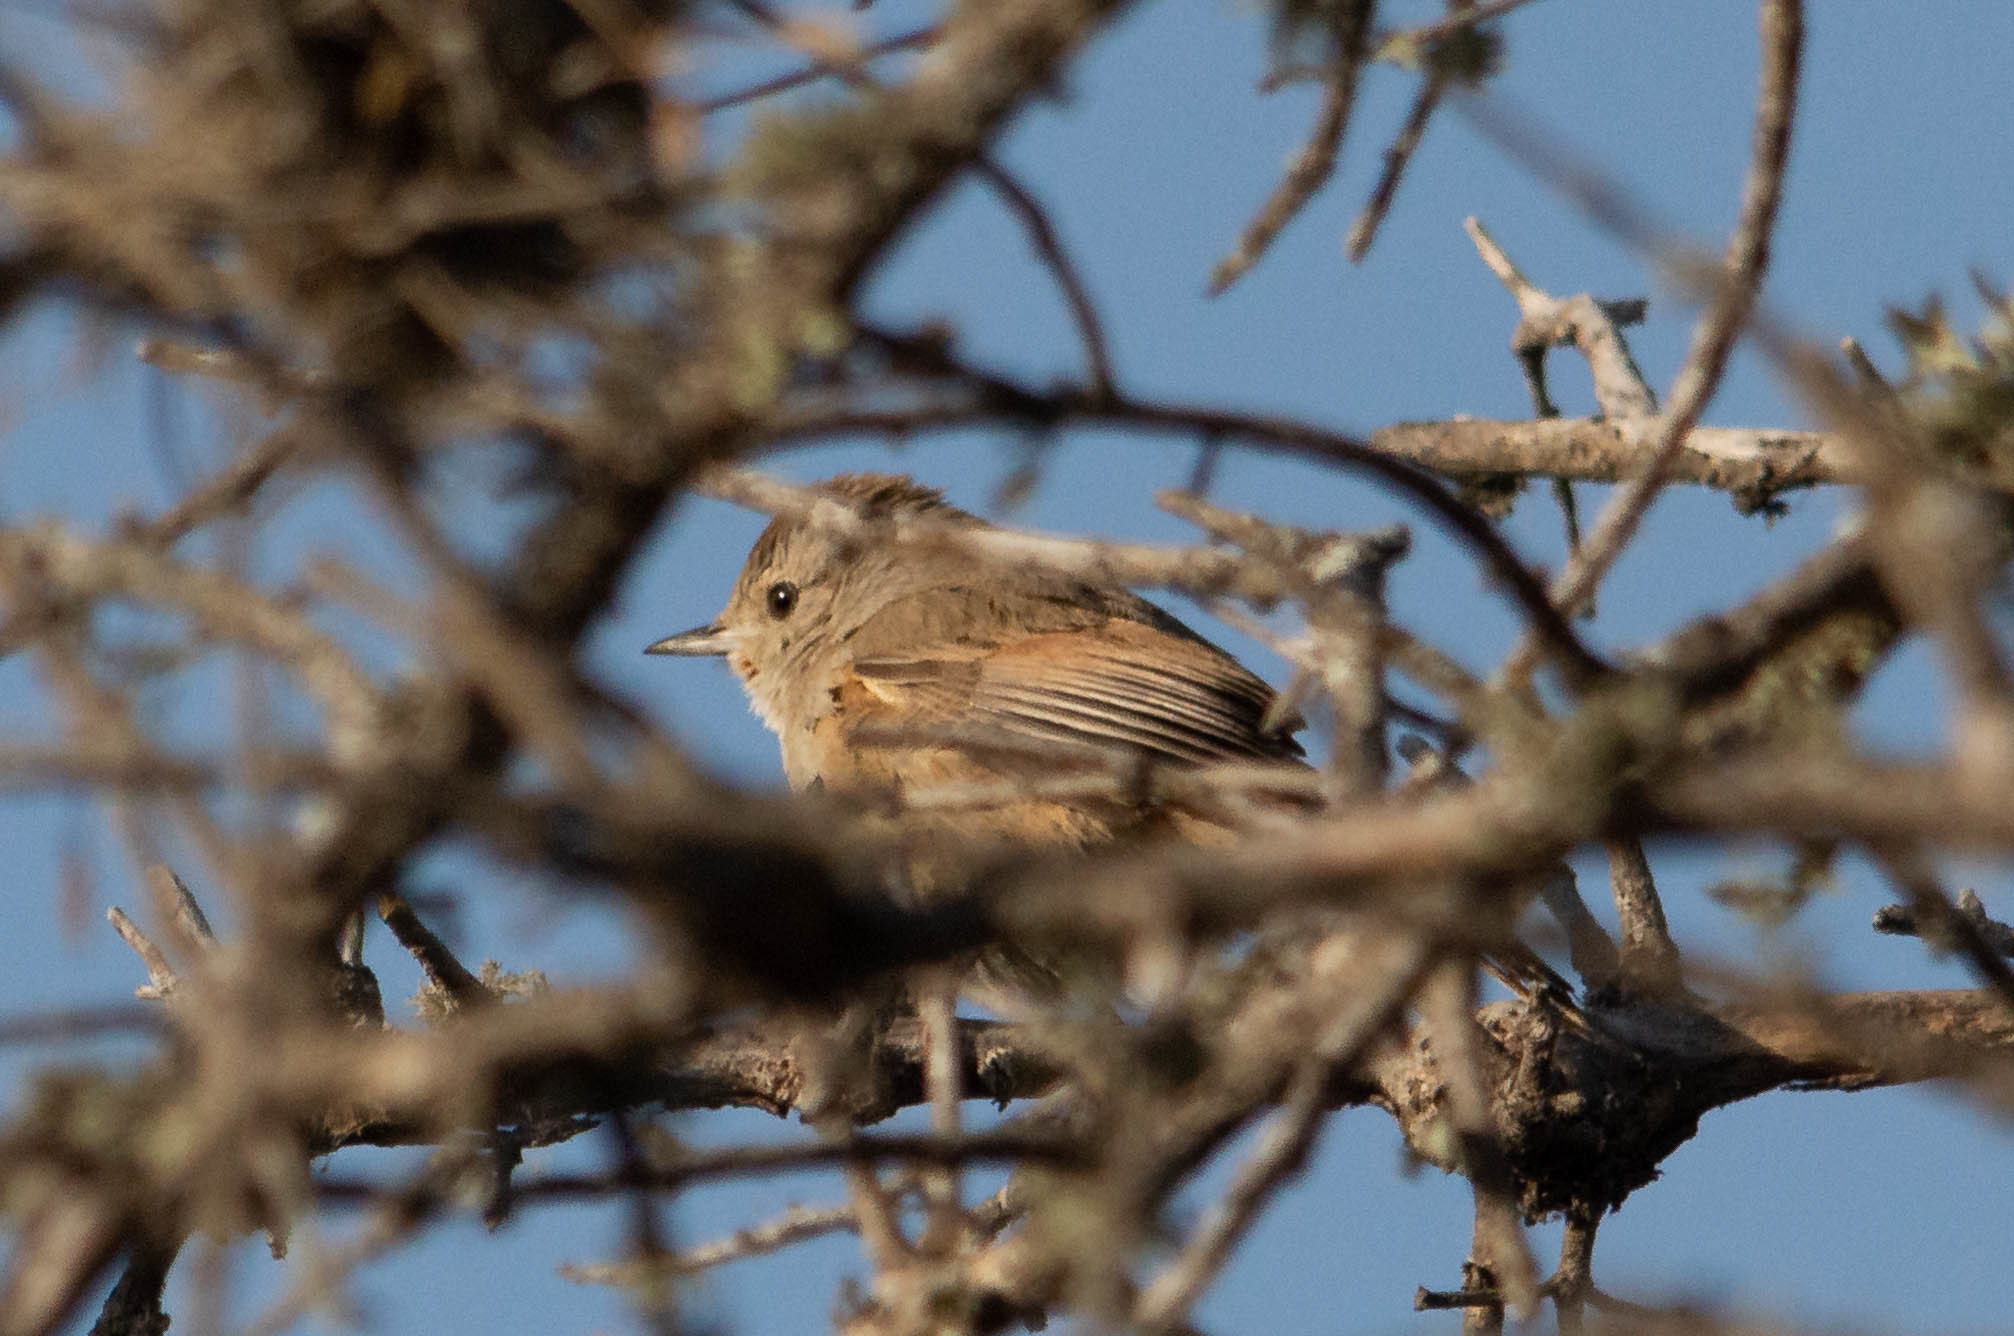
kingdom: Animalia
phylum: Chordata
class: Aves
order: Passeriformes
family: Furnariidae
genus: Asthenes
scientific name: Asthenes baeri
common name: Short-billed canastero
